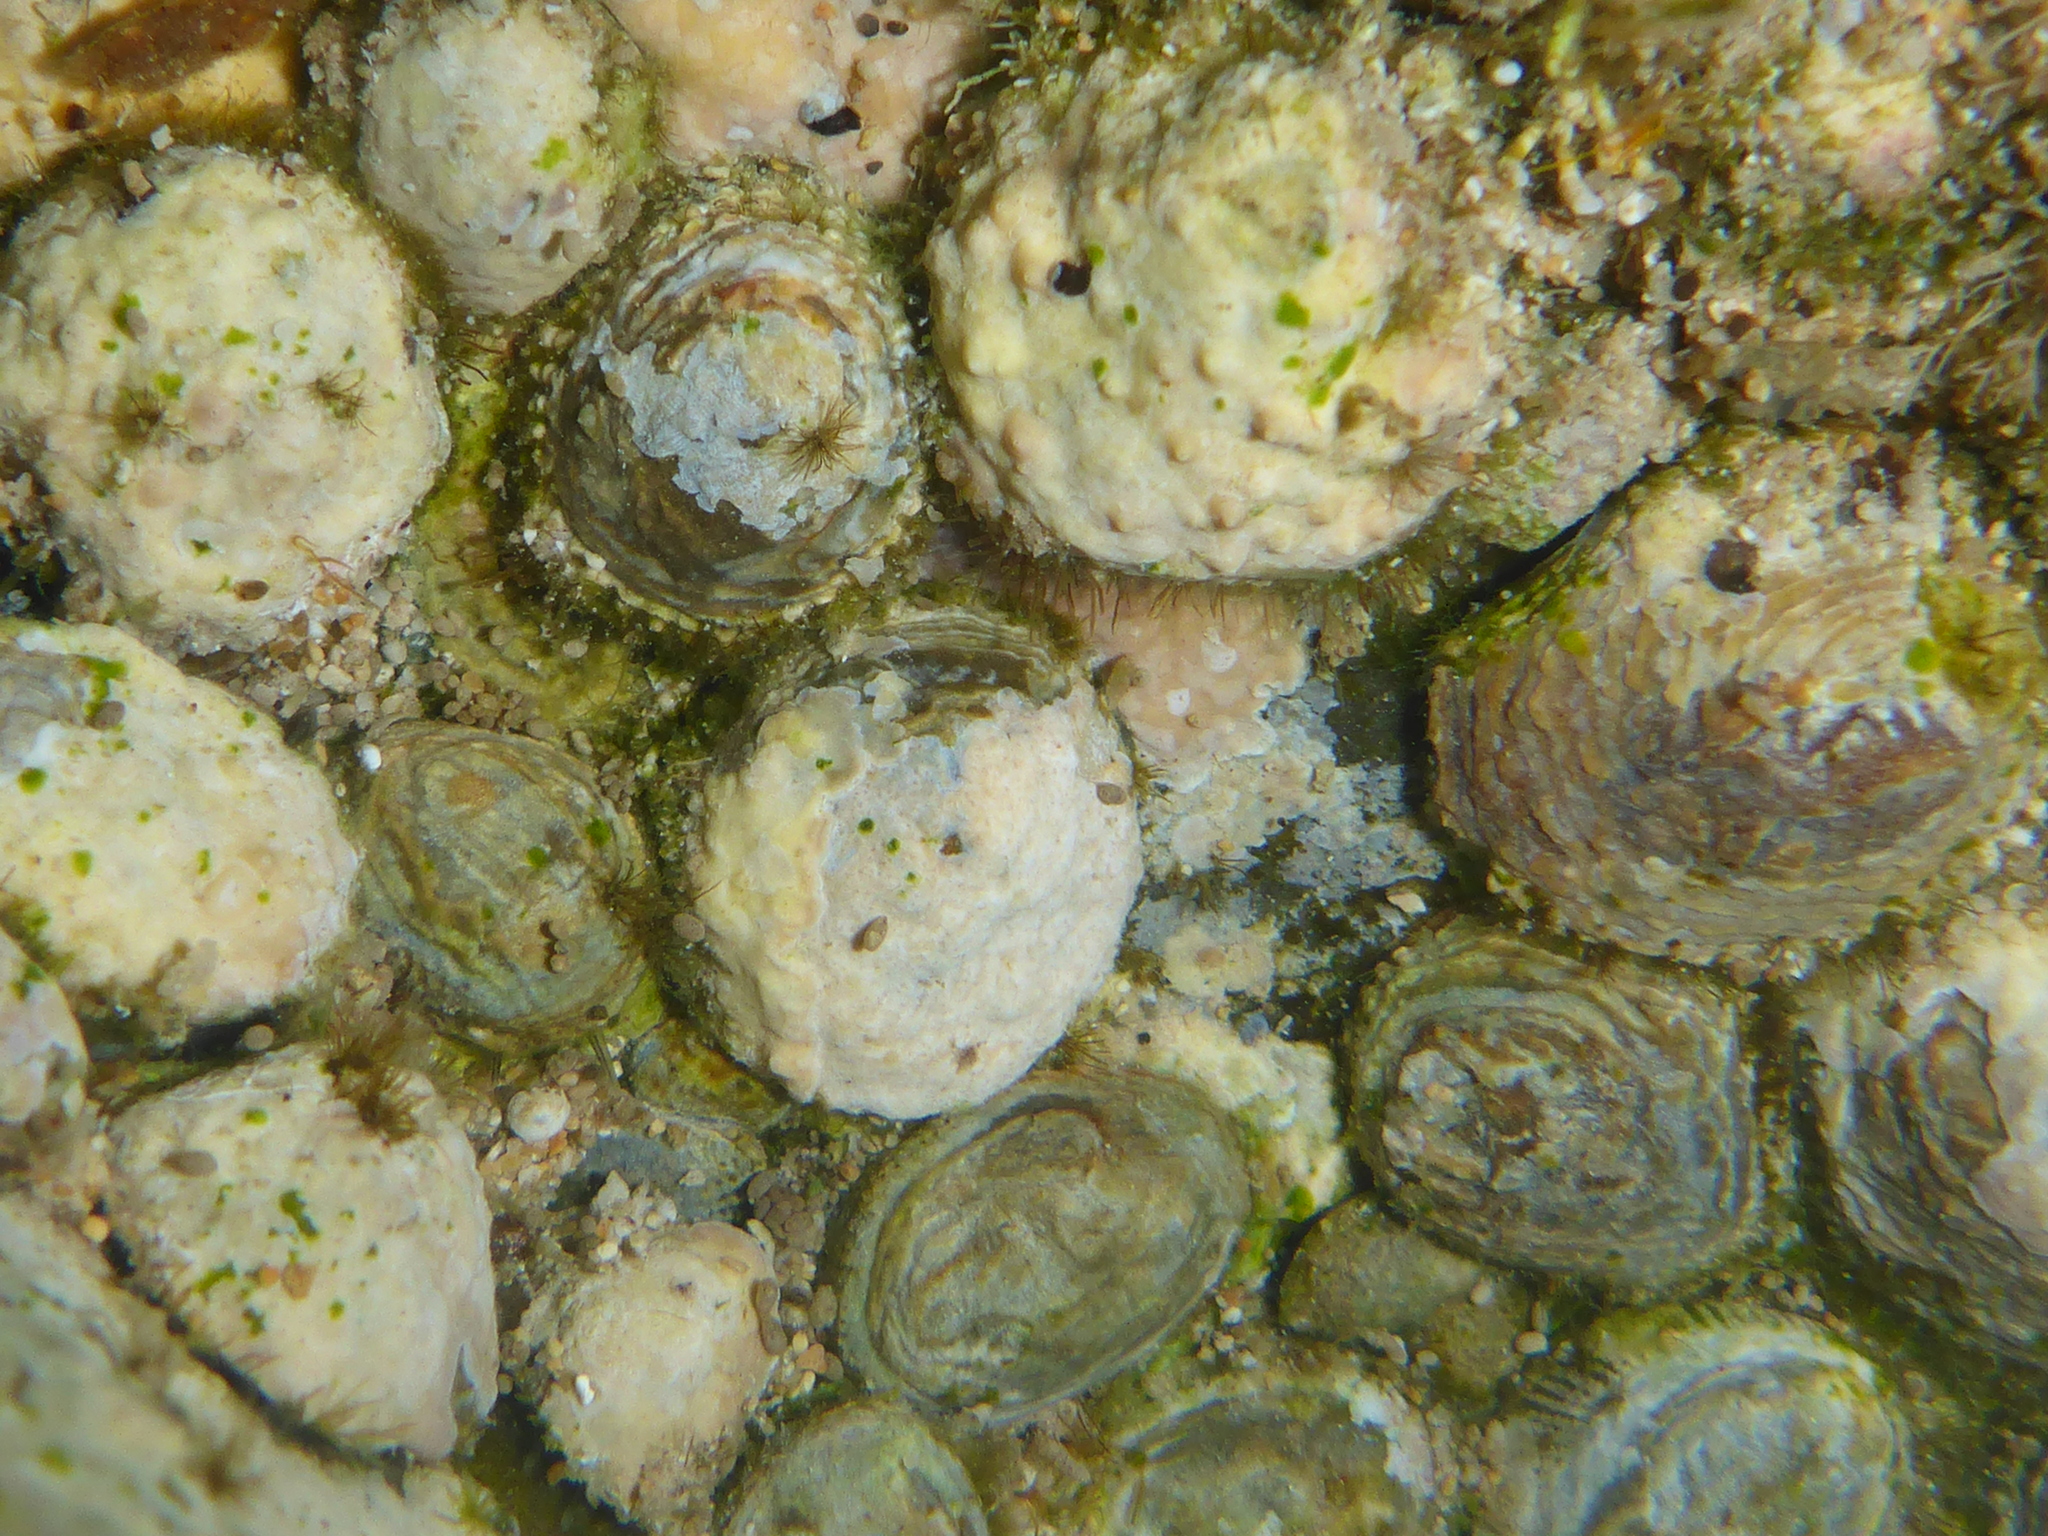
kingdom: Animalia
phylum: Mollusca
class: Gastropoda
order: Littorinimorpha
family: Hipponicidae
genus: Antisabia
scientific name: Antisabia imbricata
